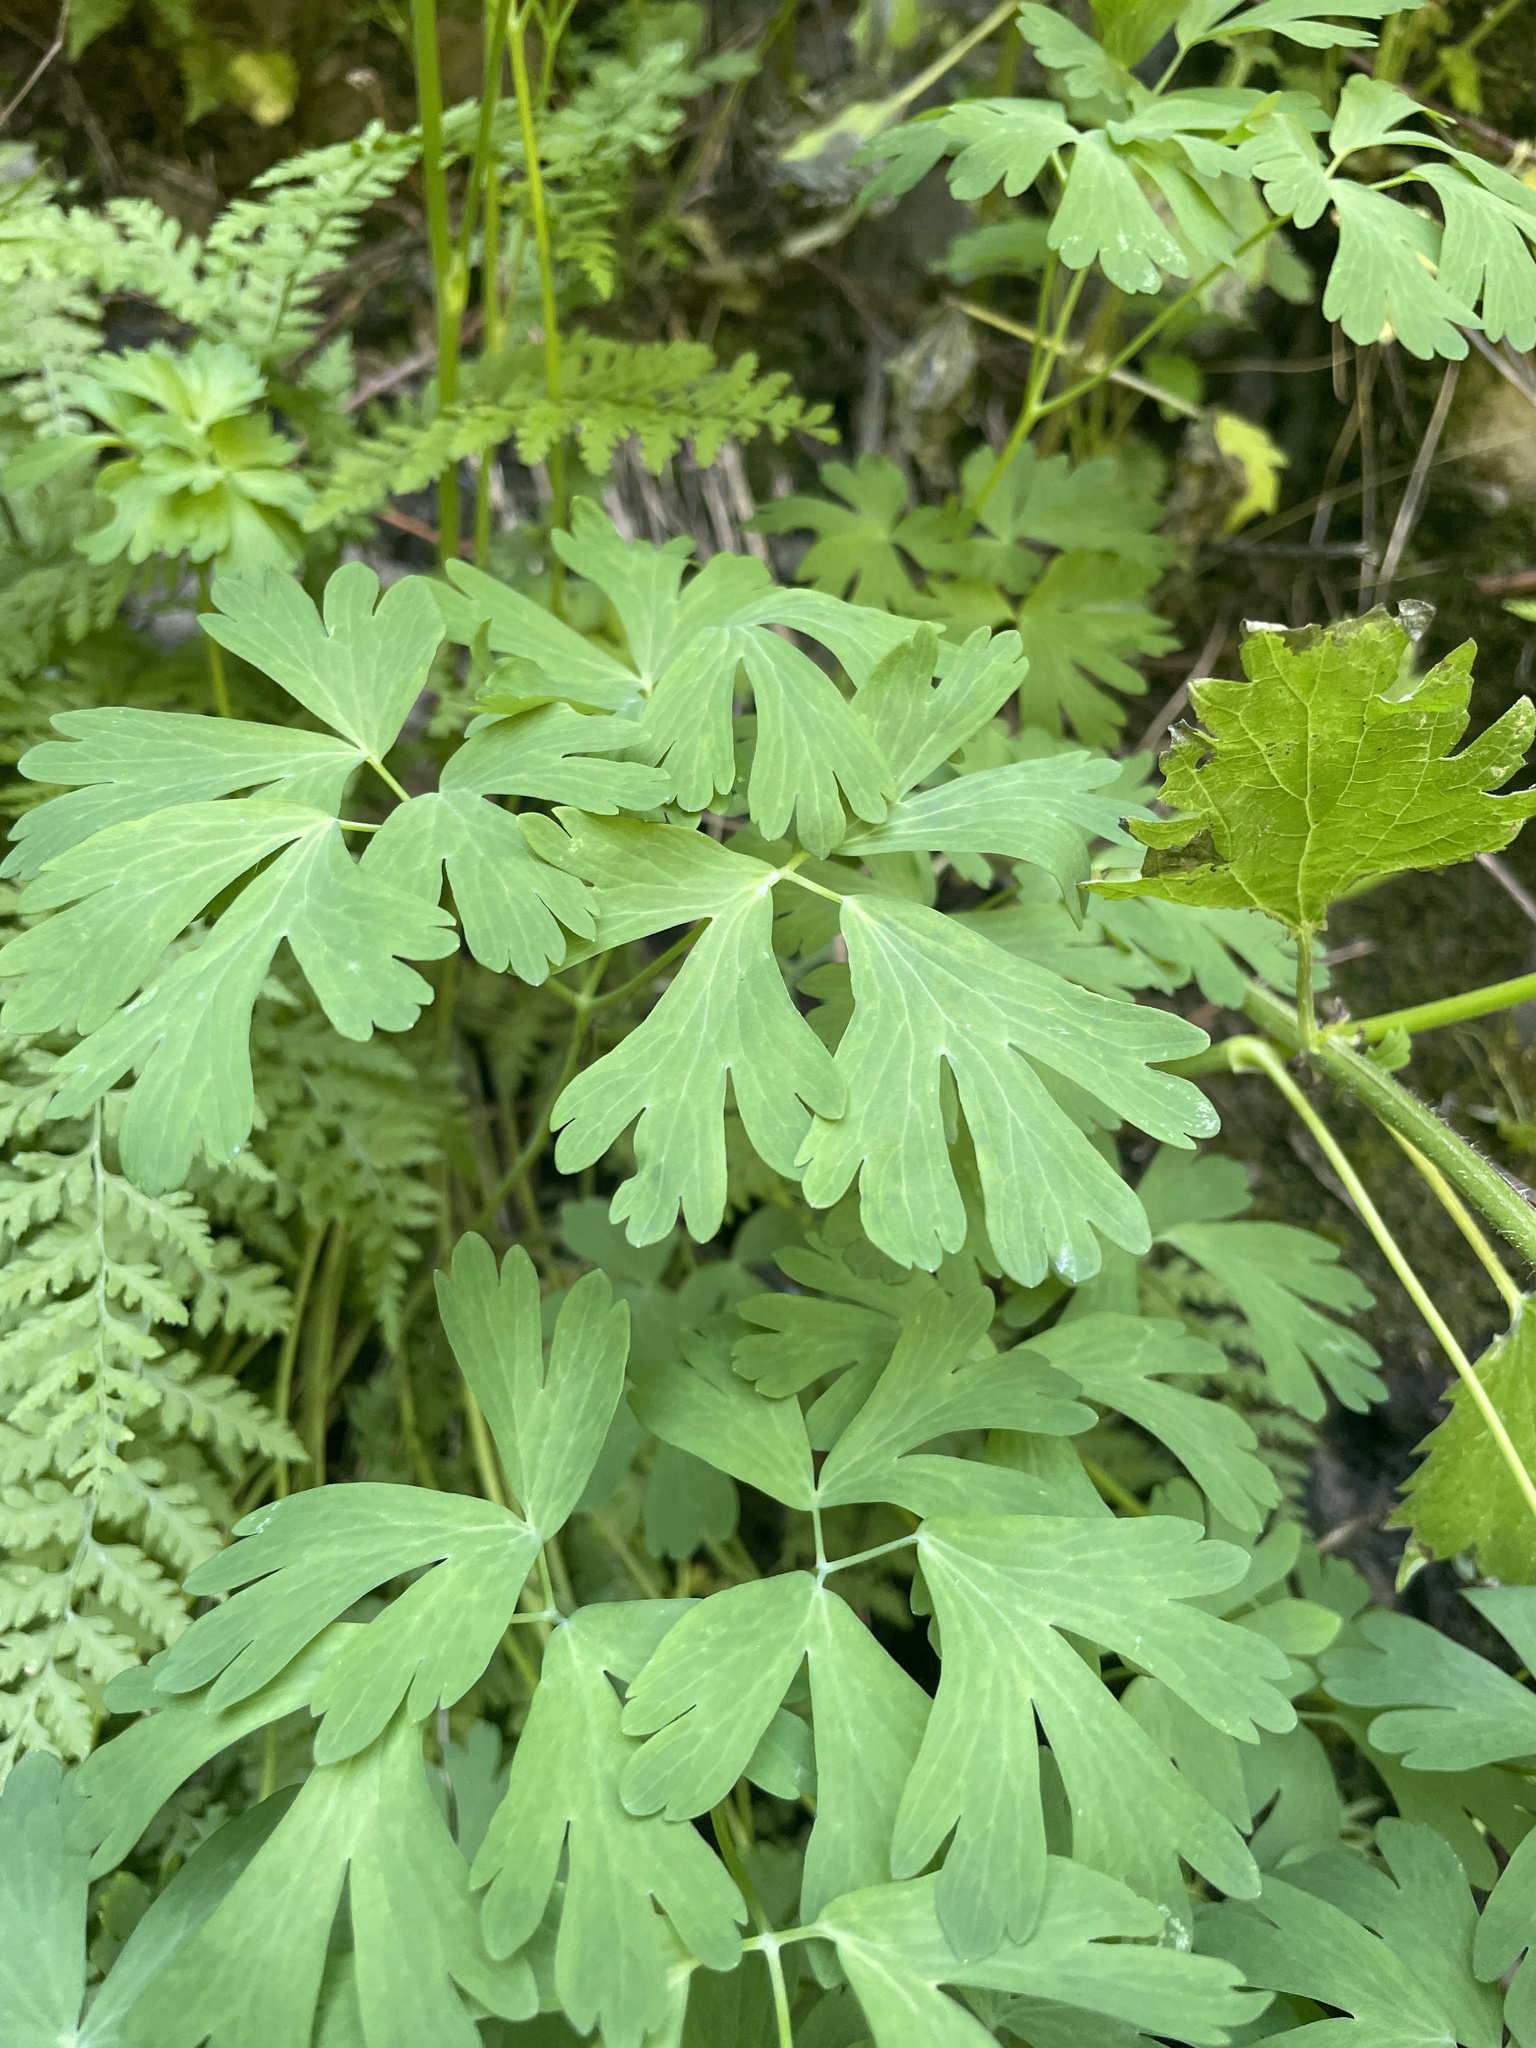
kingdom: Plantae
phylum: Tracheophyta
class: Magnoliopsida
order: Ranunculales
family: Ranunculaceae
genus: Aquilegia
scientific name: Aquilegia flavescens
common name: Yellow columbine
